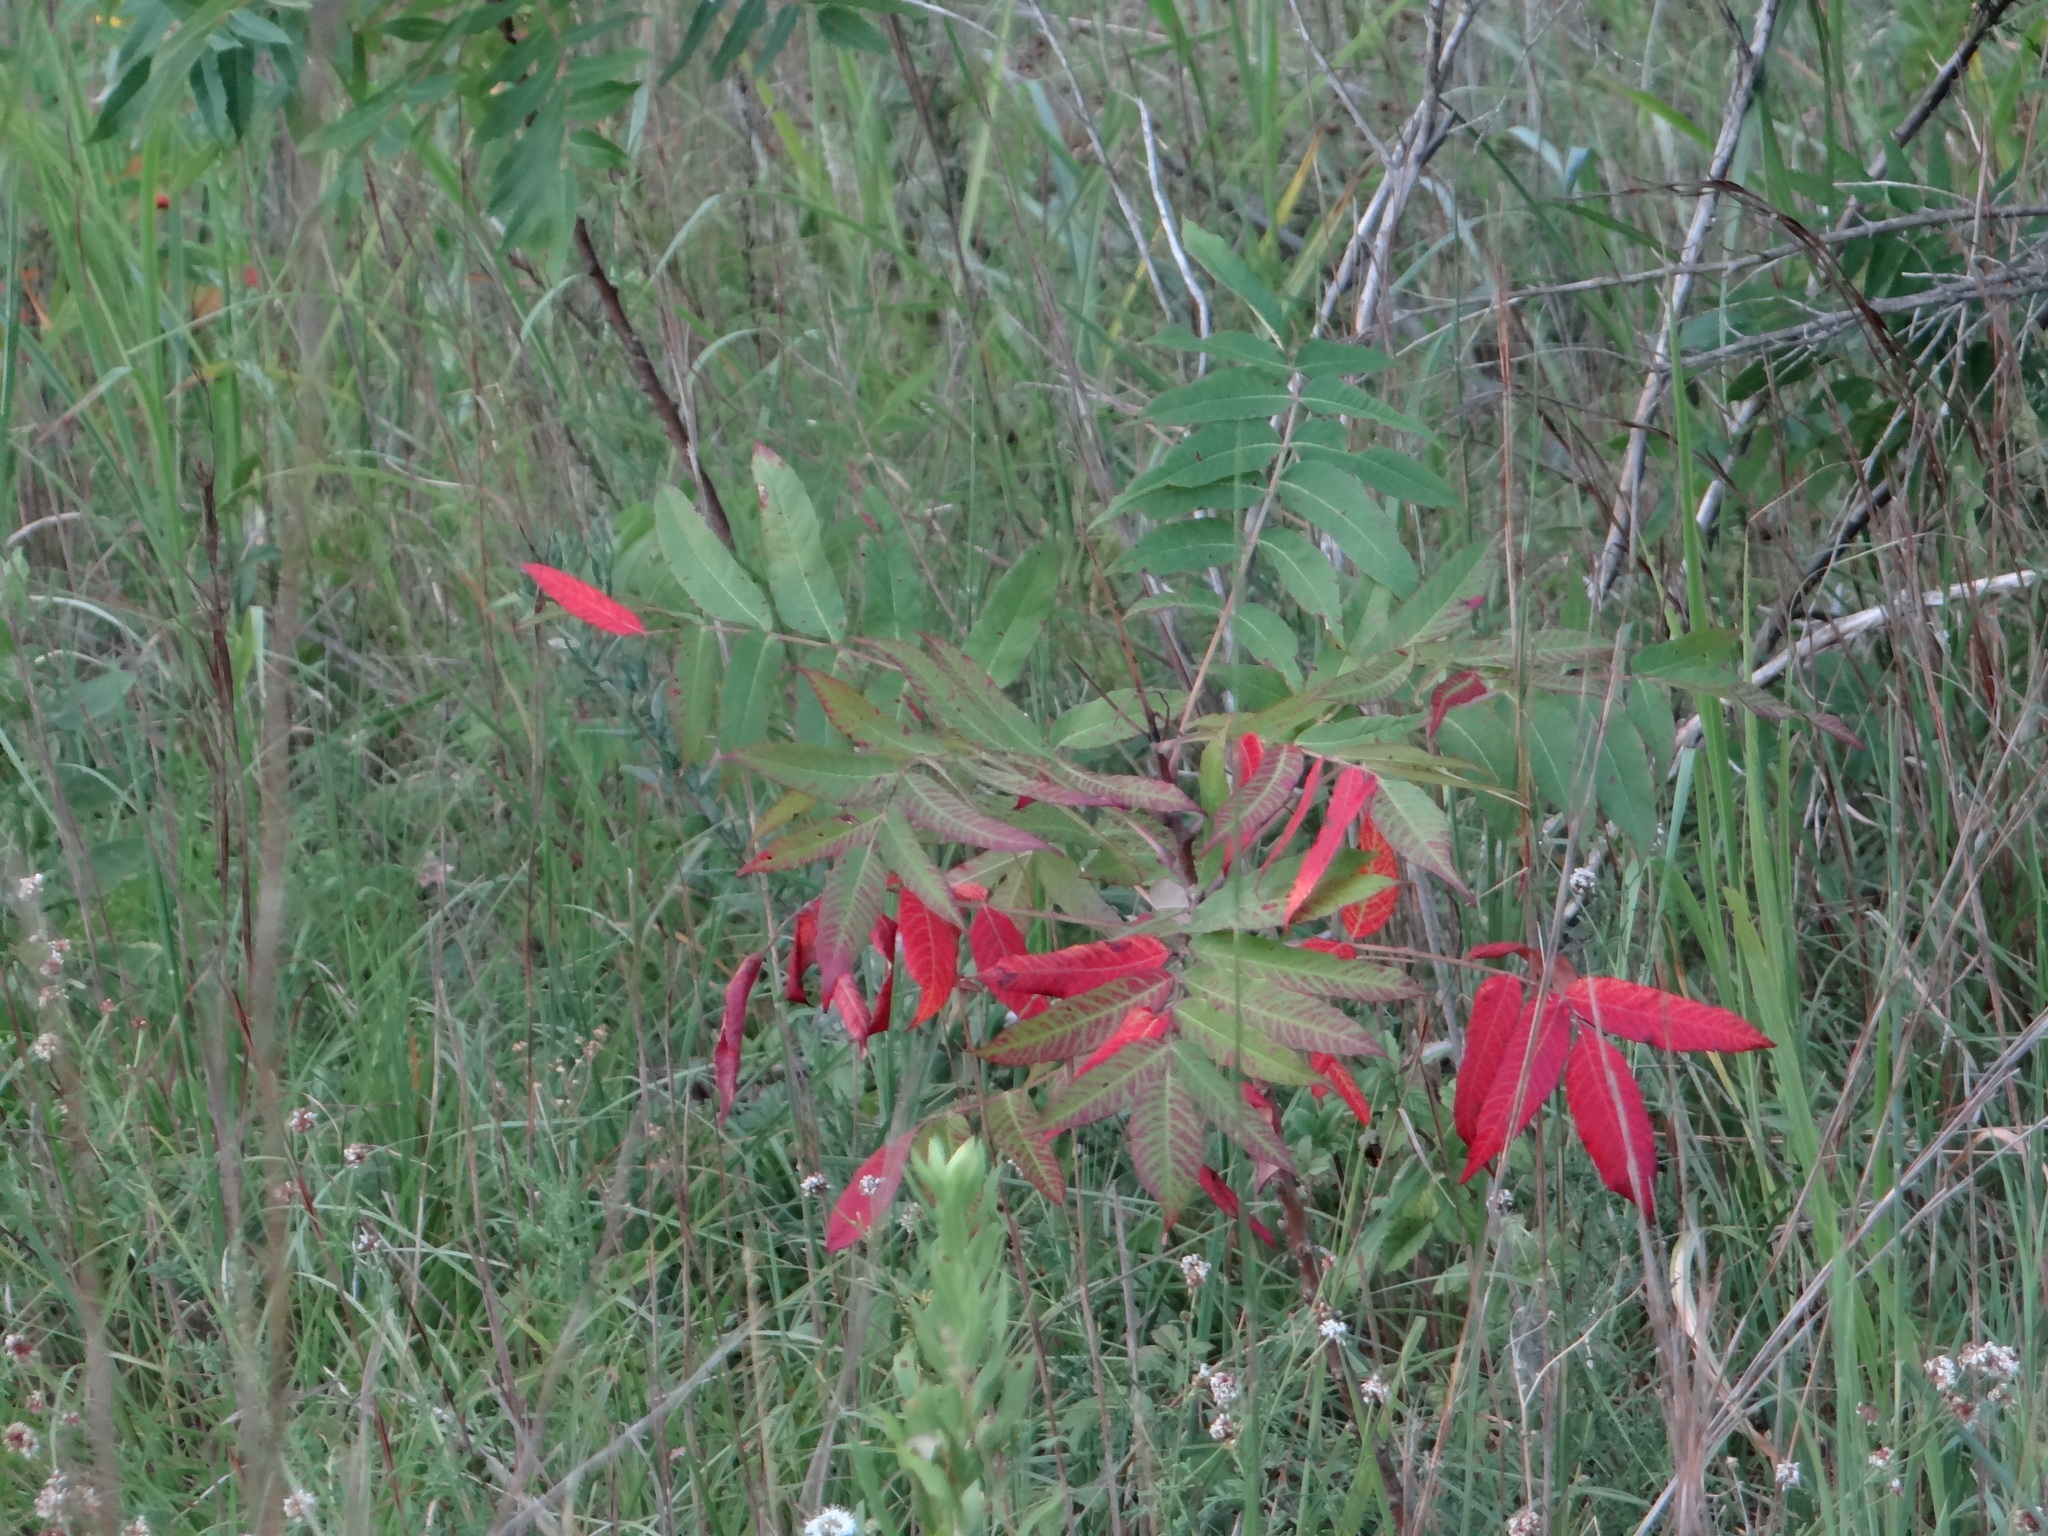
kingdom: Plantae
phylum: Tracheophyta
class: Magnoliopsida
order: Sapindales
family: Anacardiaceae
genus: Rhus
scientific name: Rhus glabra
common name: Scarlet sumac
